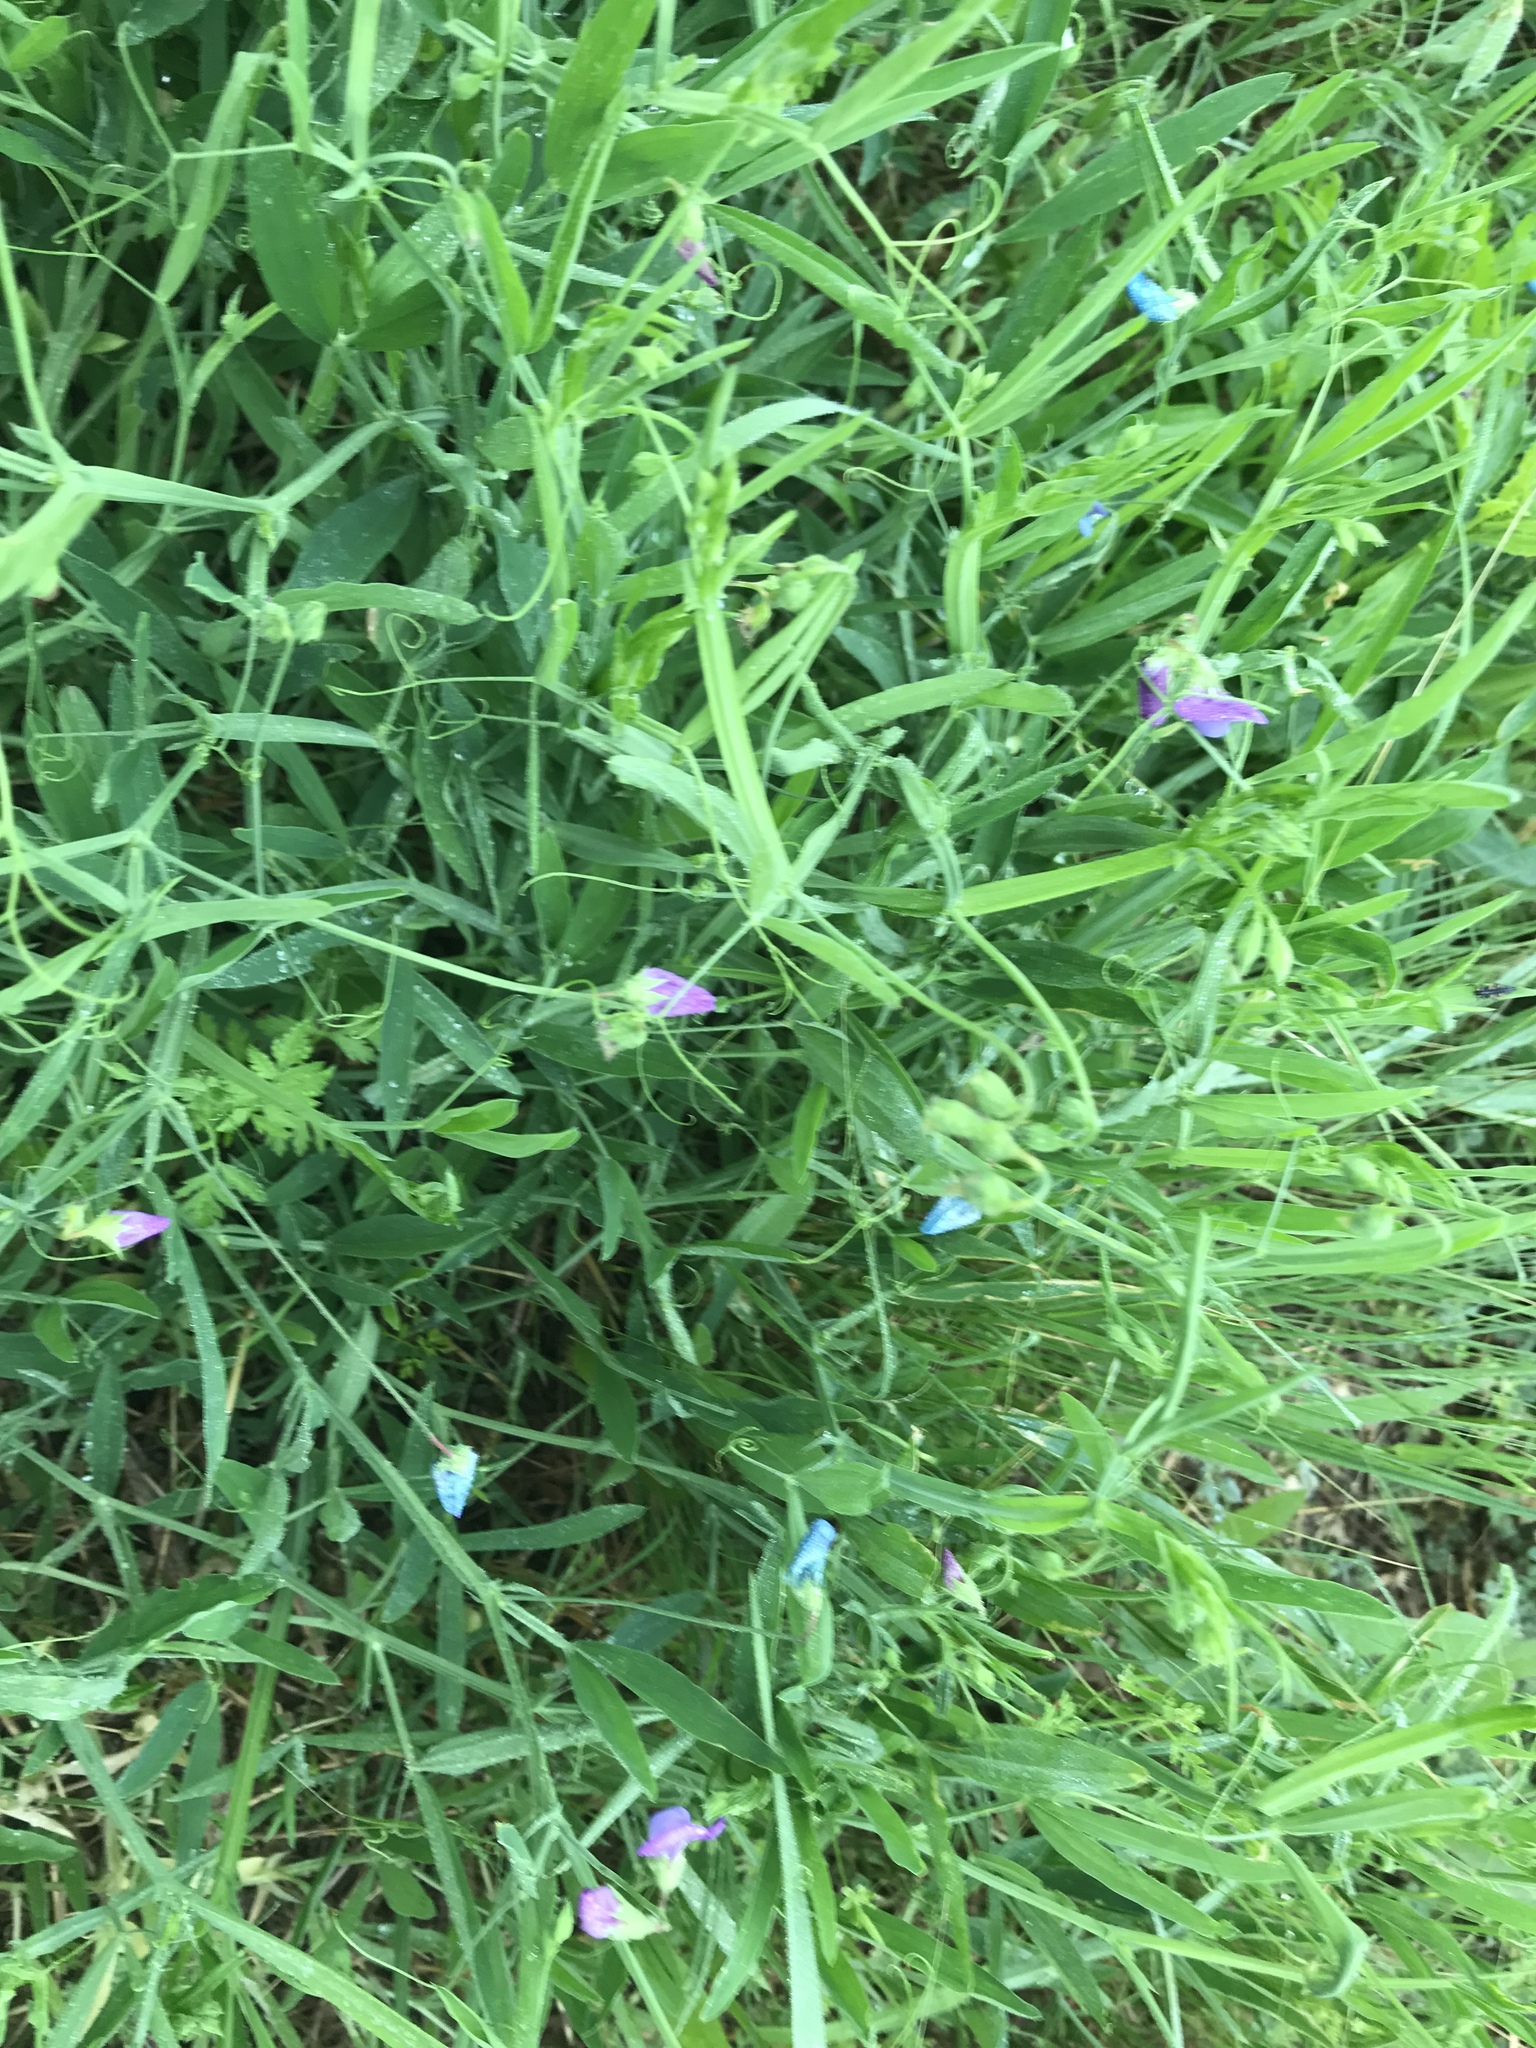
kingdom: Plantae
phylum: Tracheophyta
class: Magnoliopsida
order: Fabales
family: Fabaceae
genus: Lathyrus
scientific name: Lathyrus hirsutus
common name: Hairy vetchling
